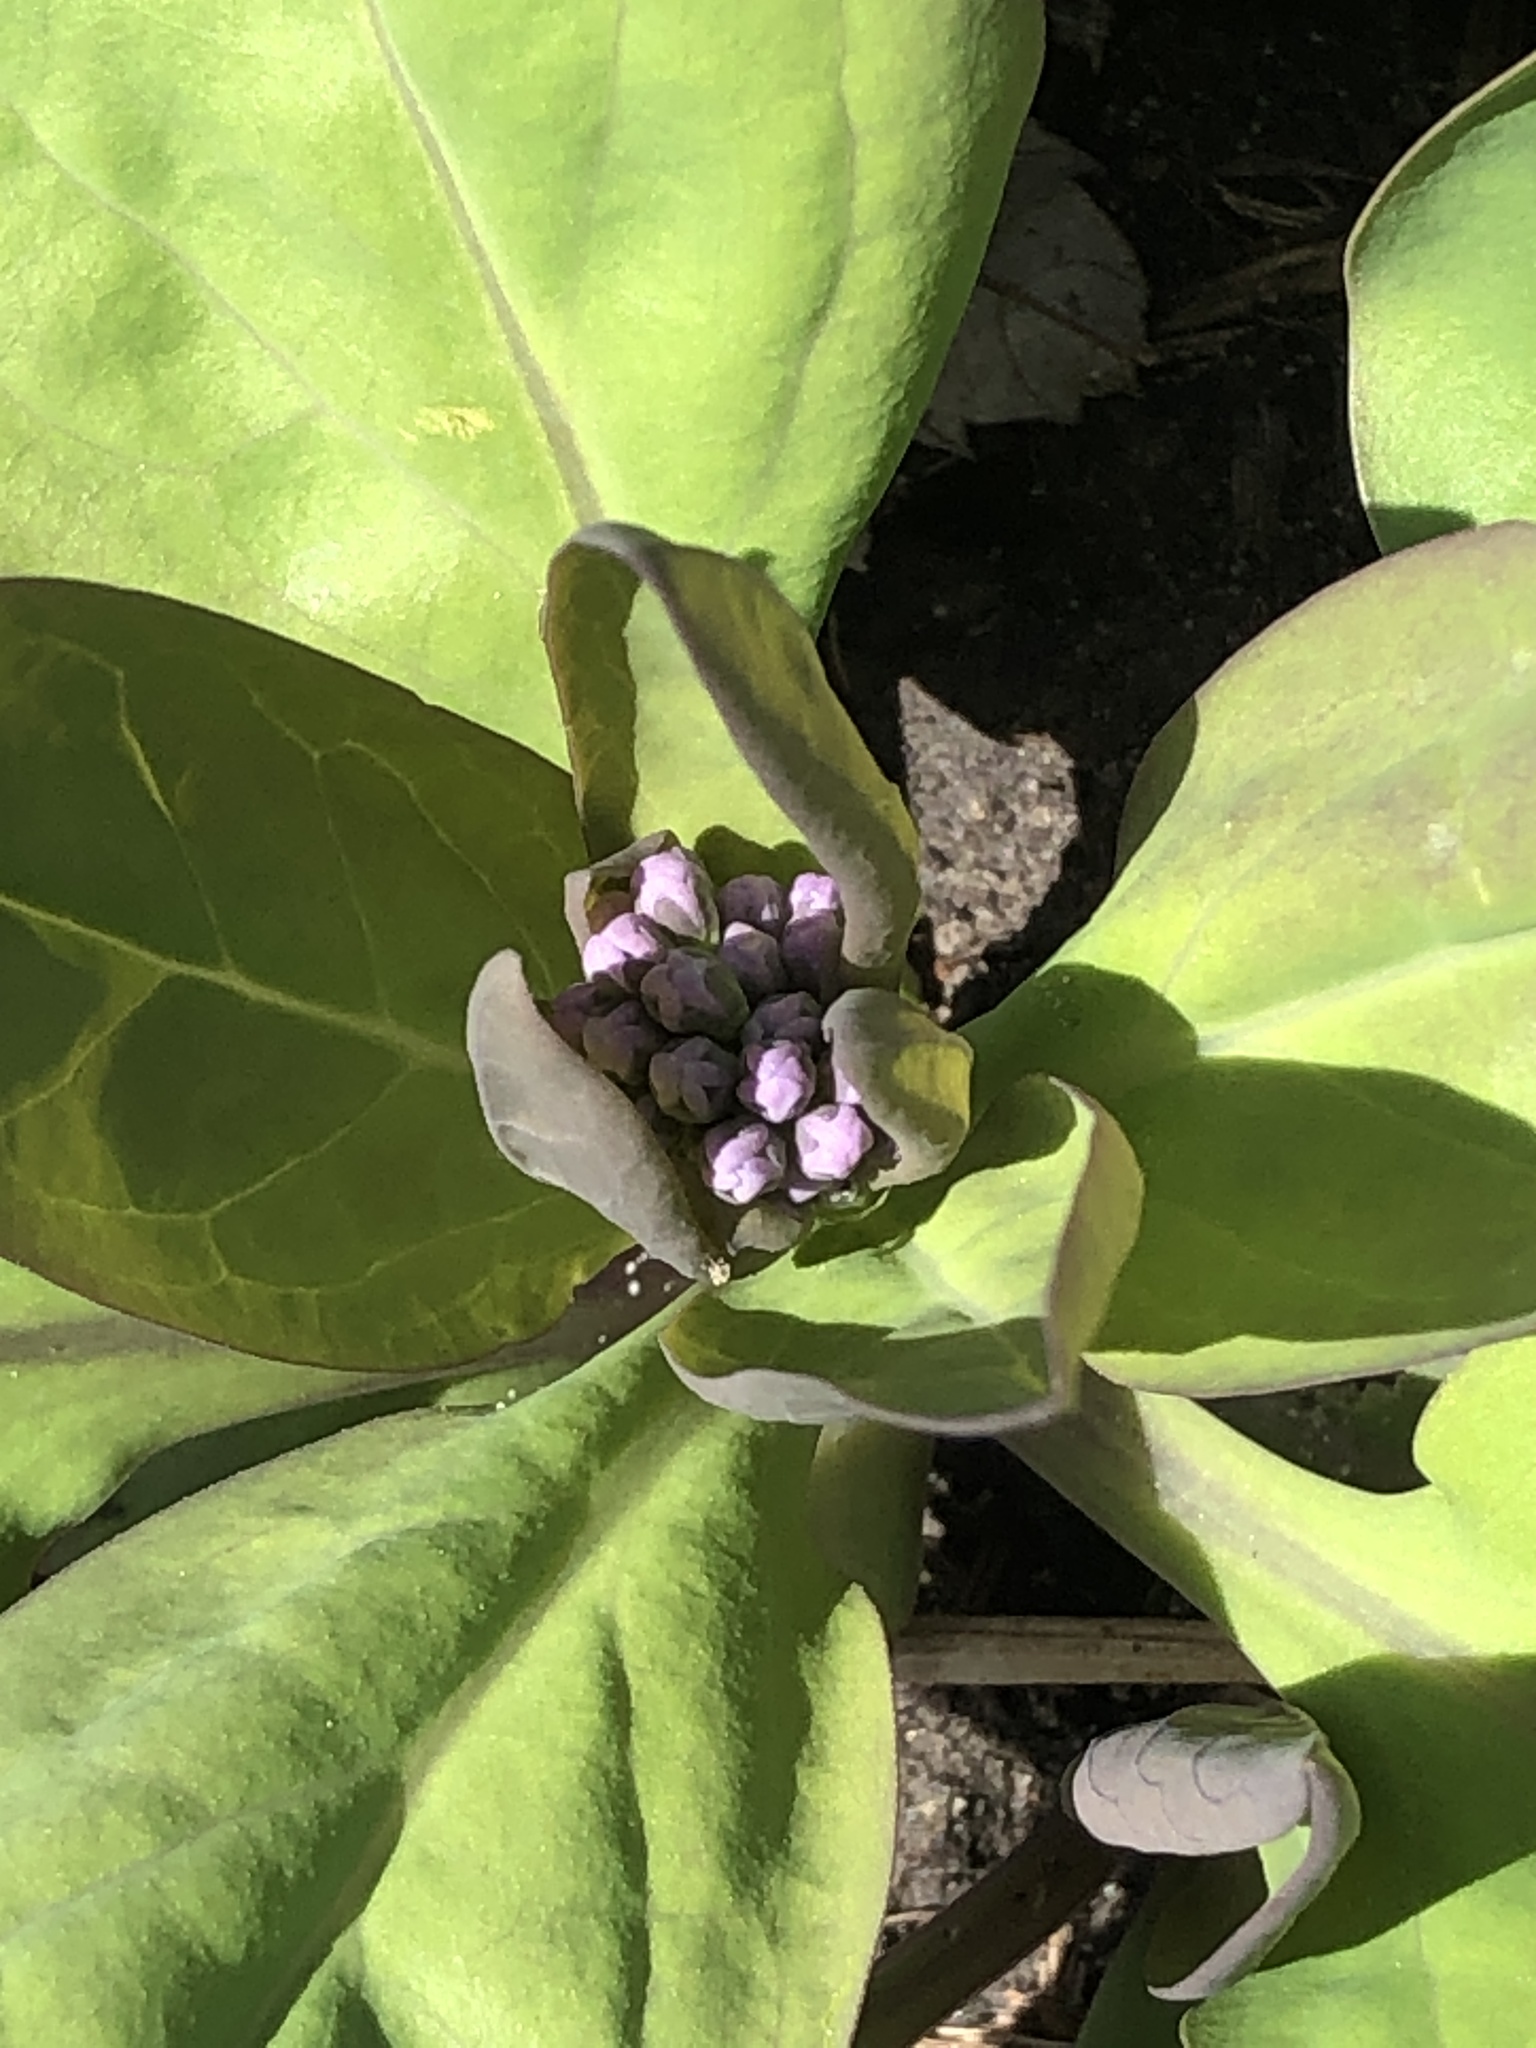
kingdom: Plantae
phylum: Tracheophyta
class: Magnoliopsida
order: Boraginales
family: Boraginaceae
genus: Mertensia
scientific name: Mertensia virginica
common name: Virginia bluebells
